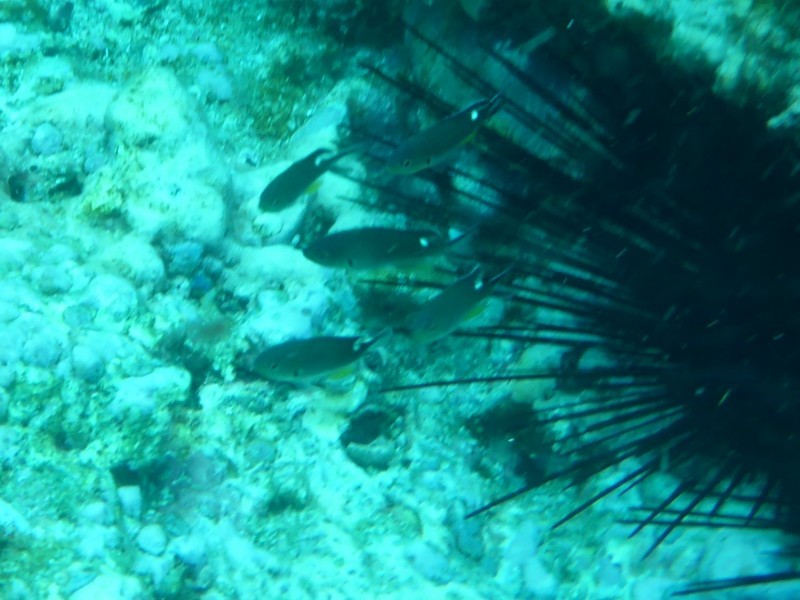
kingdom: Animalia
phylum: Chordata
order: Perciformes
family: Pomacentridae
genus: Chromis
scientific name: Chromis atrilobata
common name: Scissortail damselfish
